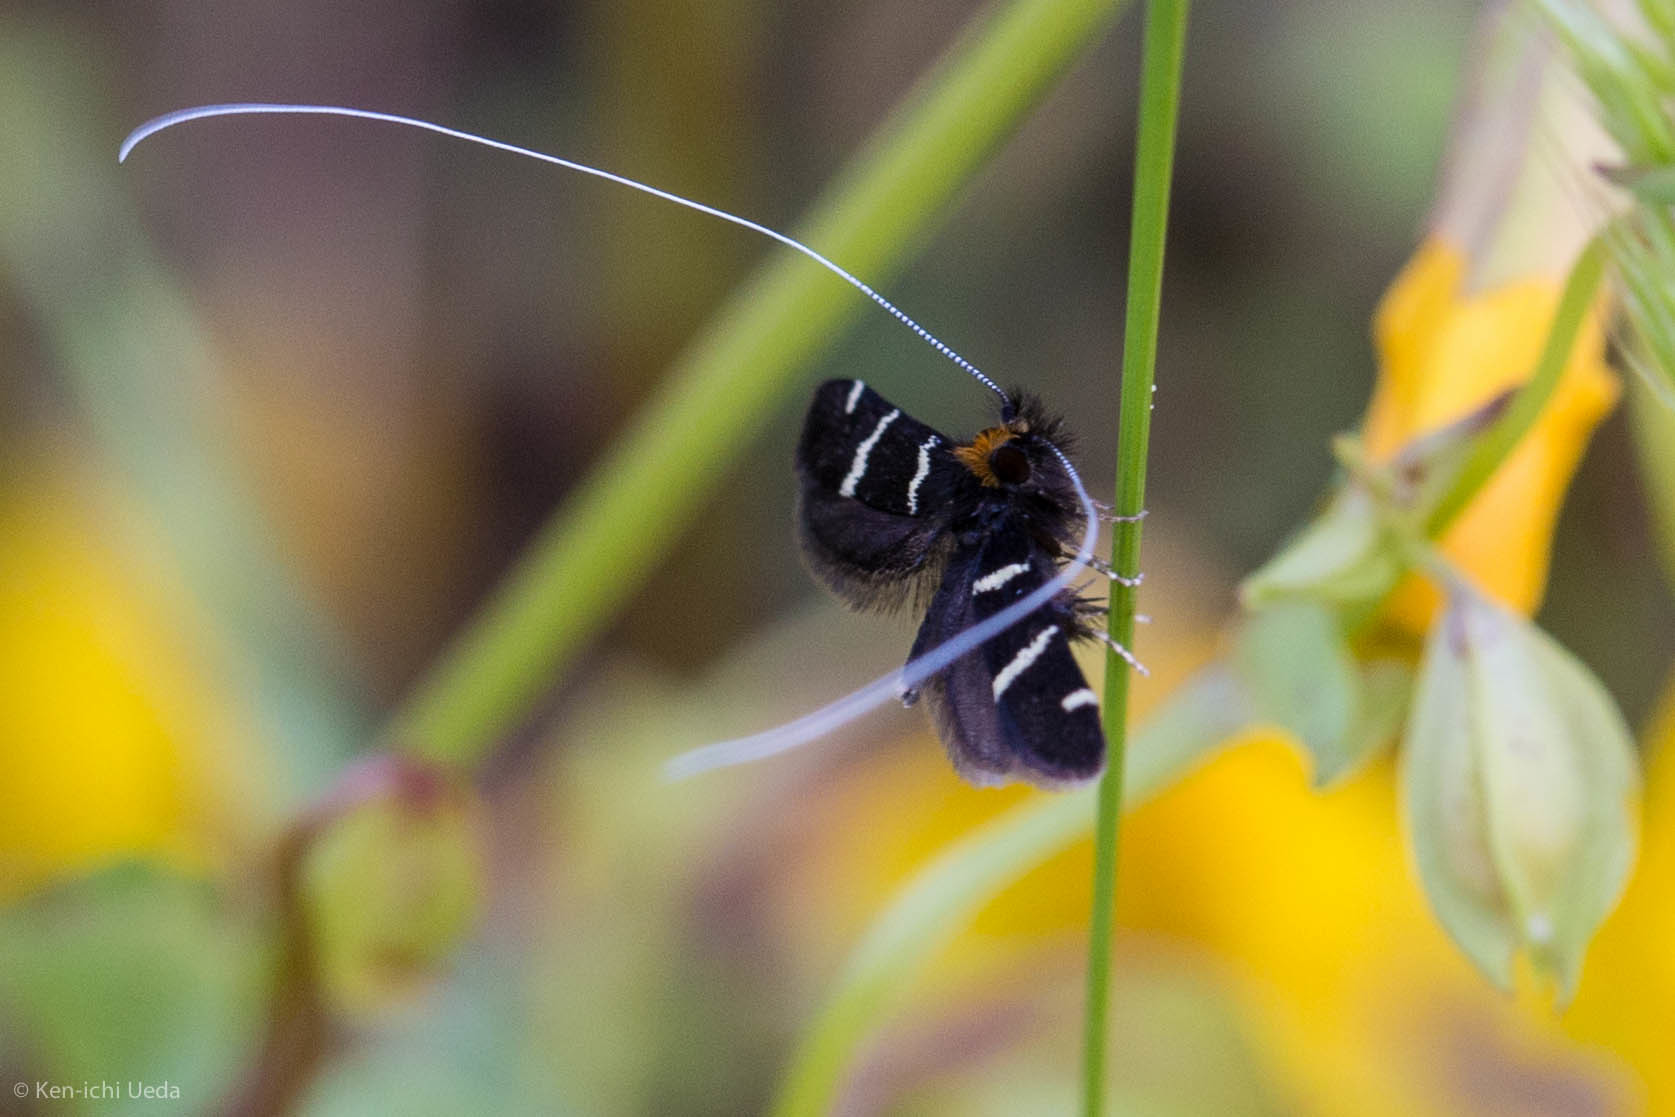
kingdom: Animalia
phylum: Arthropoda
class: Insecta
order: Lepidoptera
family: Adelidae
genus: Adela
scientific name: Adela trigrapha
